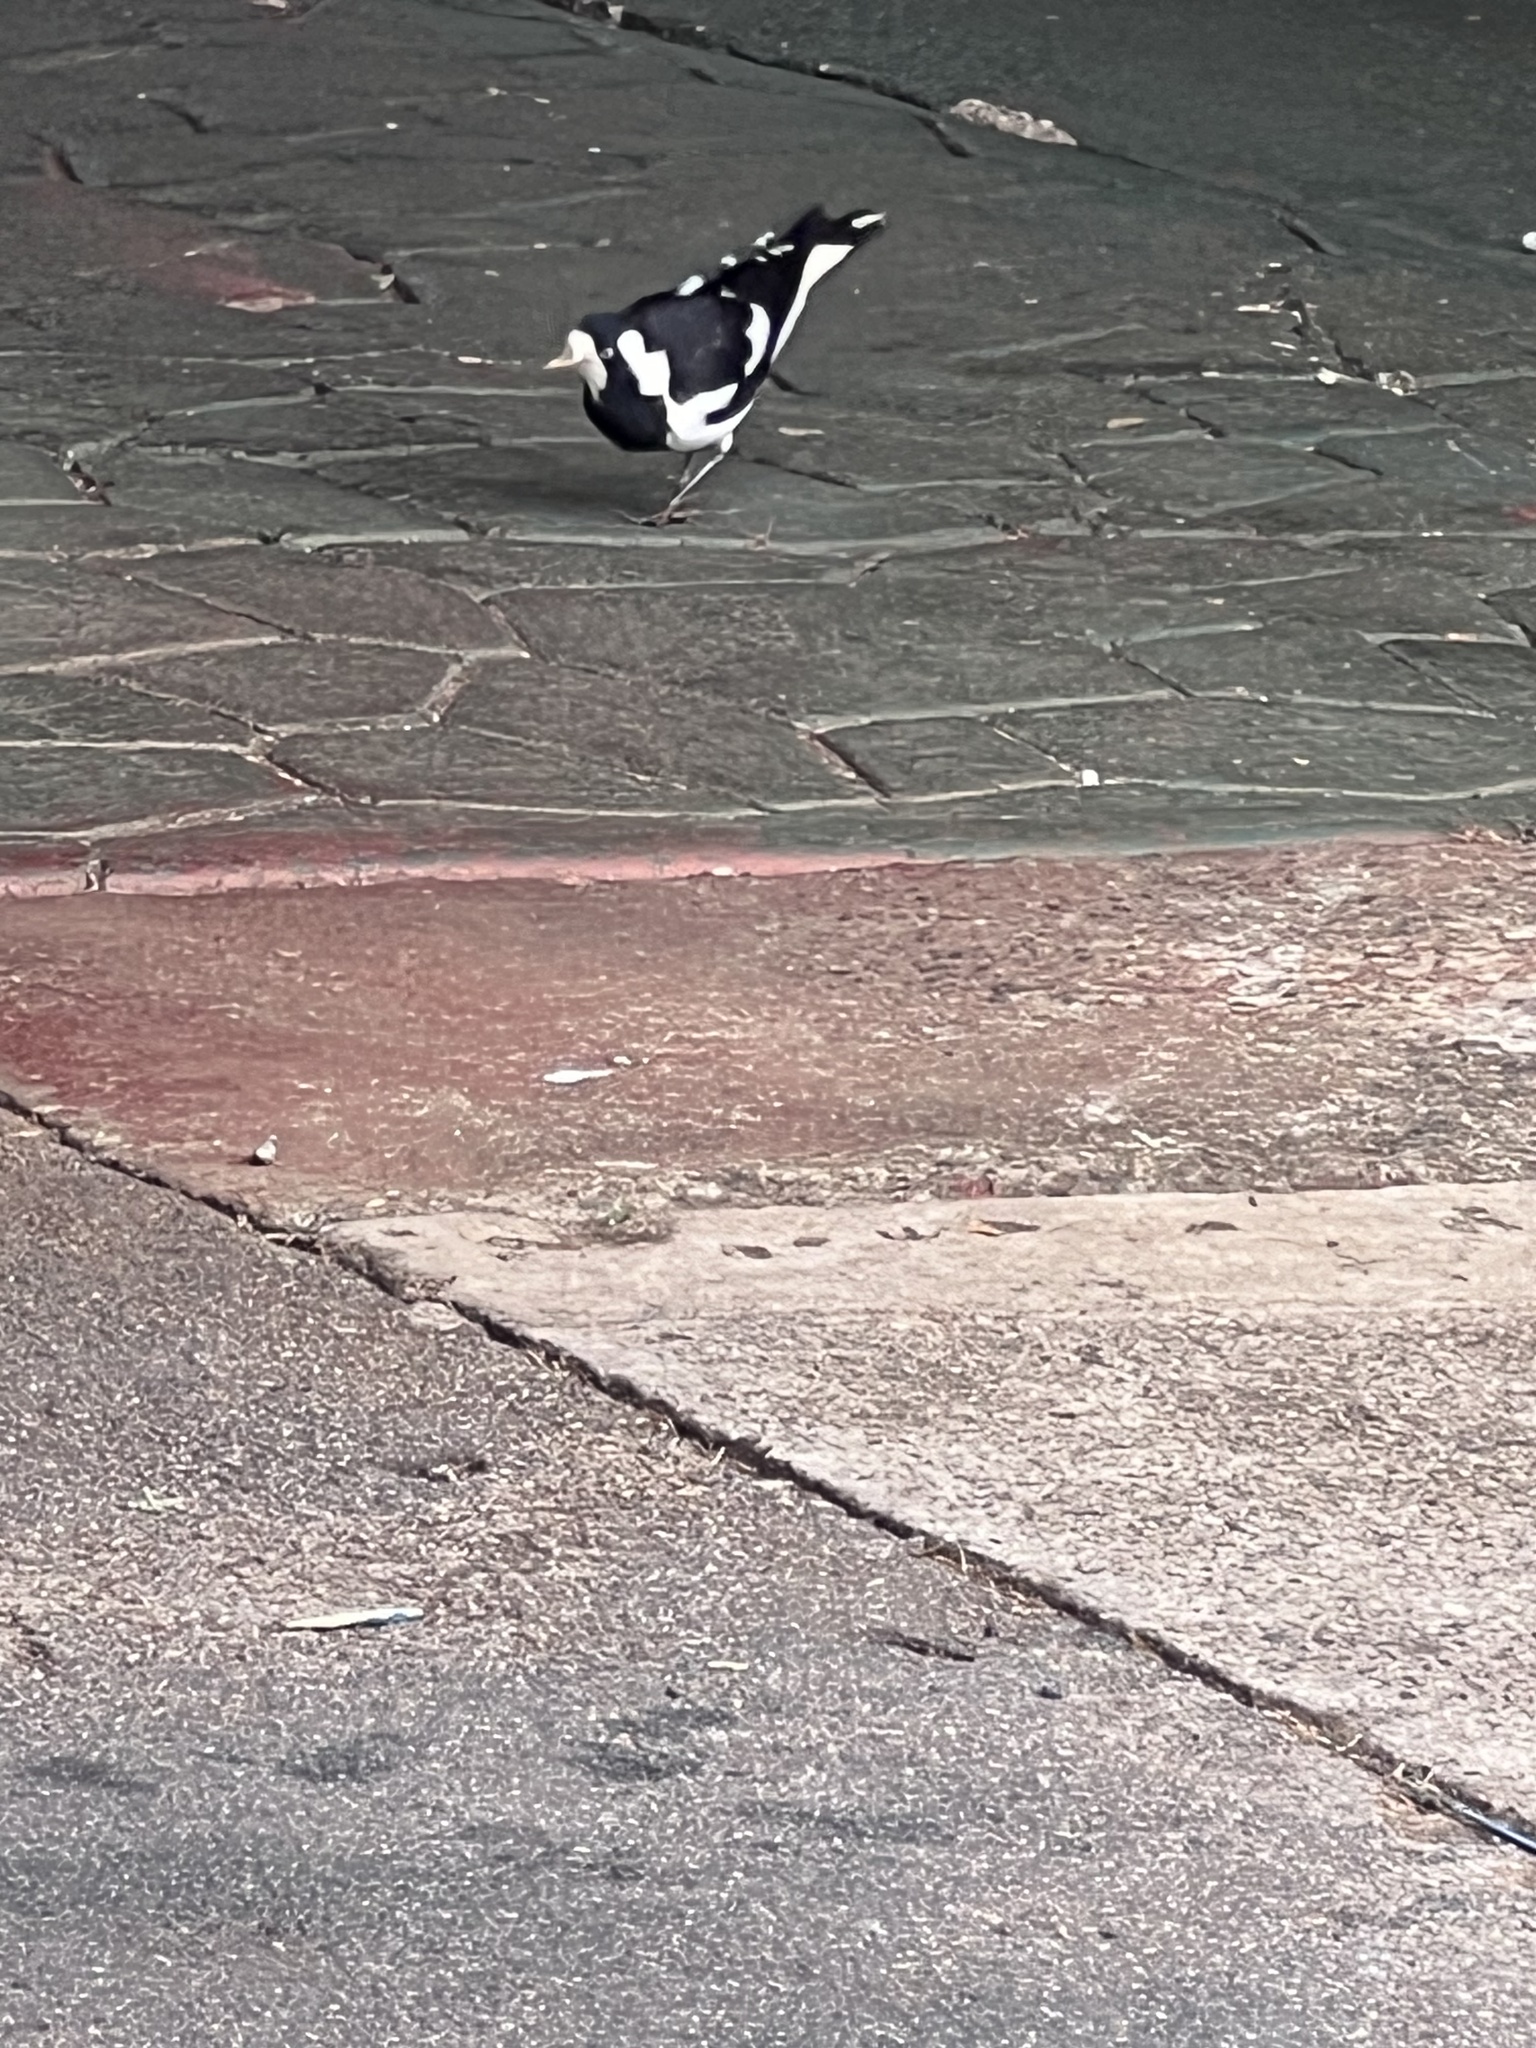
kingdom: Animalia
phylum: Chordata
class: Aves
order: Passeriformes
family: Monarchidae
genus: Grallina
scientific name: Grallina cyanoleuca
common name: Magpie-lark
